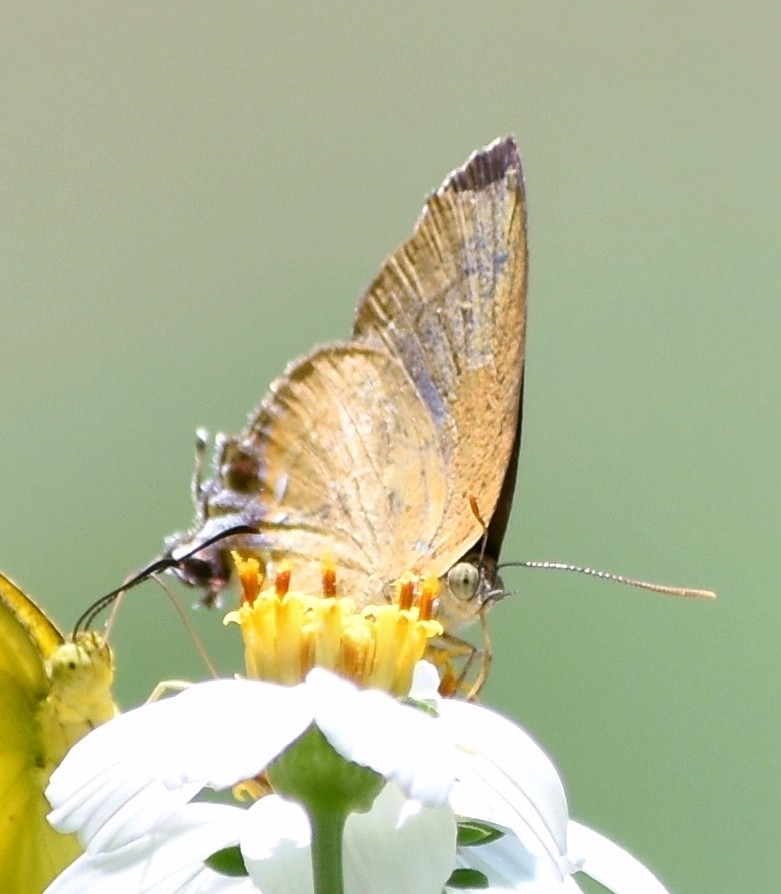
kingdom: Animalia
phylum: Arthropoda
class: Insecta
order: Lepidoptera
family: Lycaenidae
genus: Remelana
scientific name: Remelana jangala
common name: Chocolate royal
